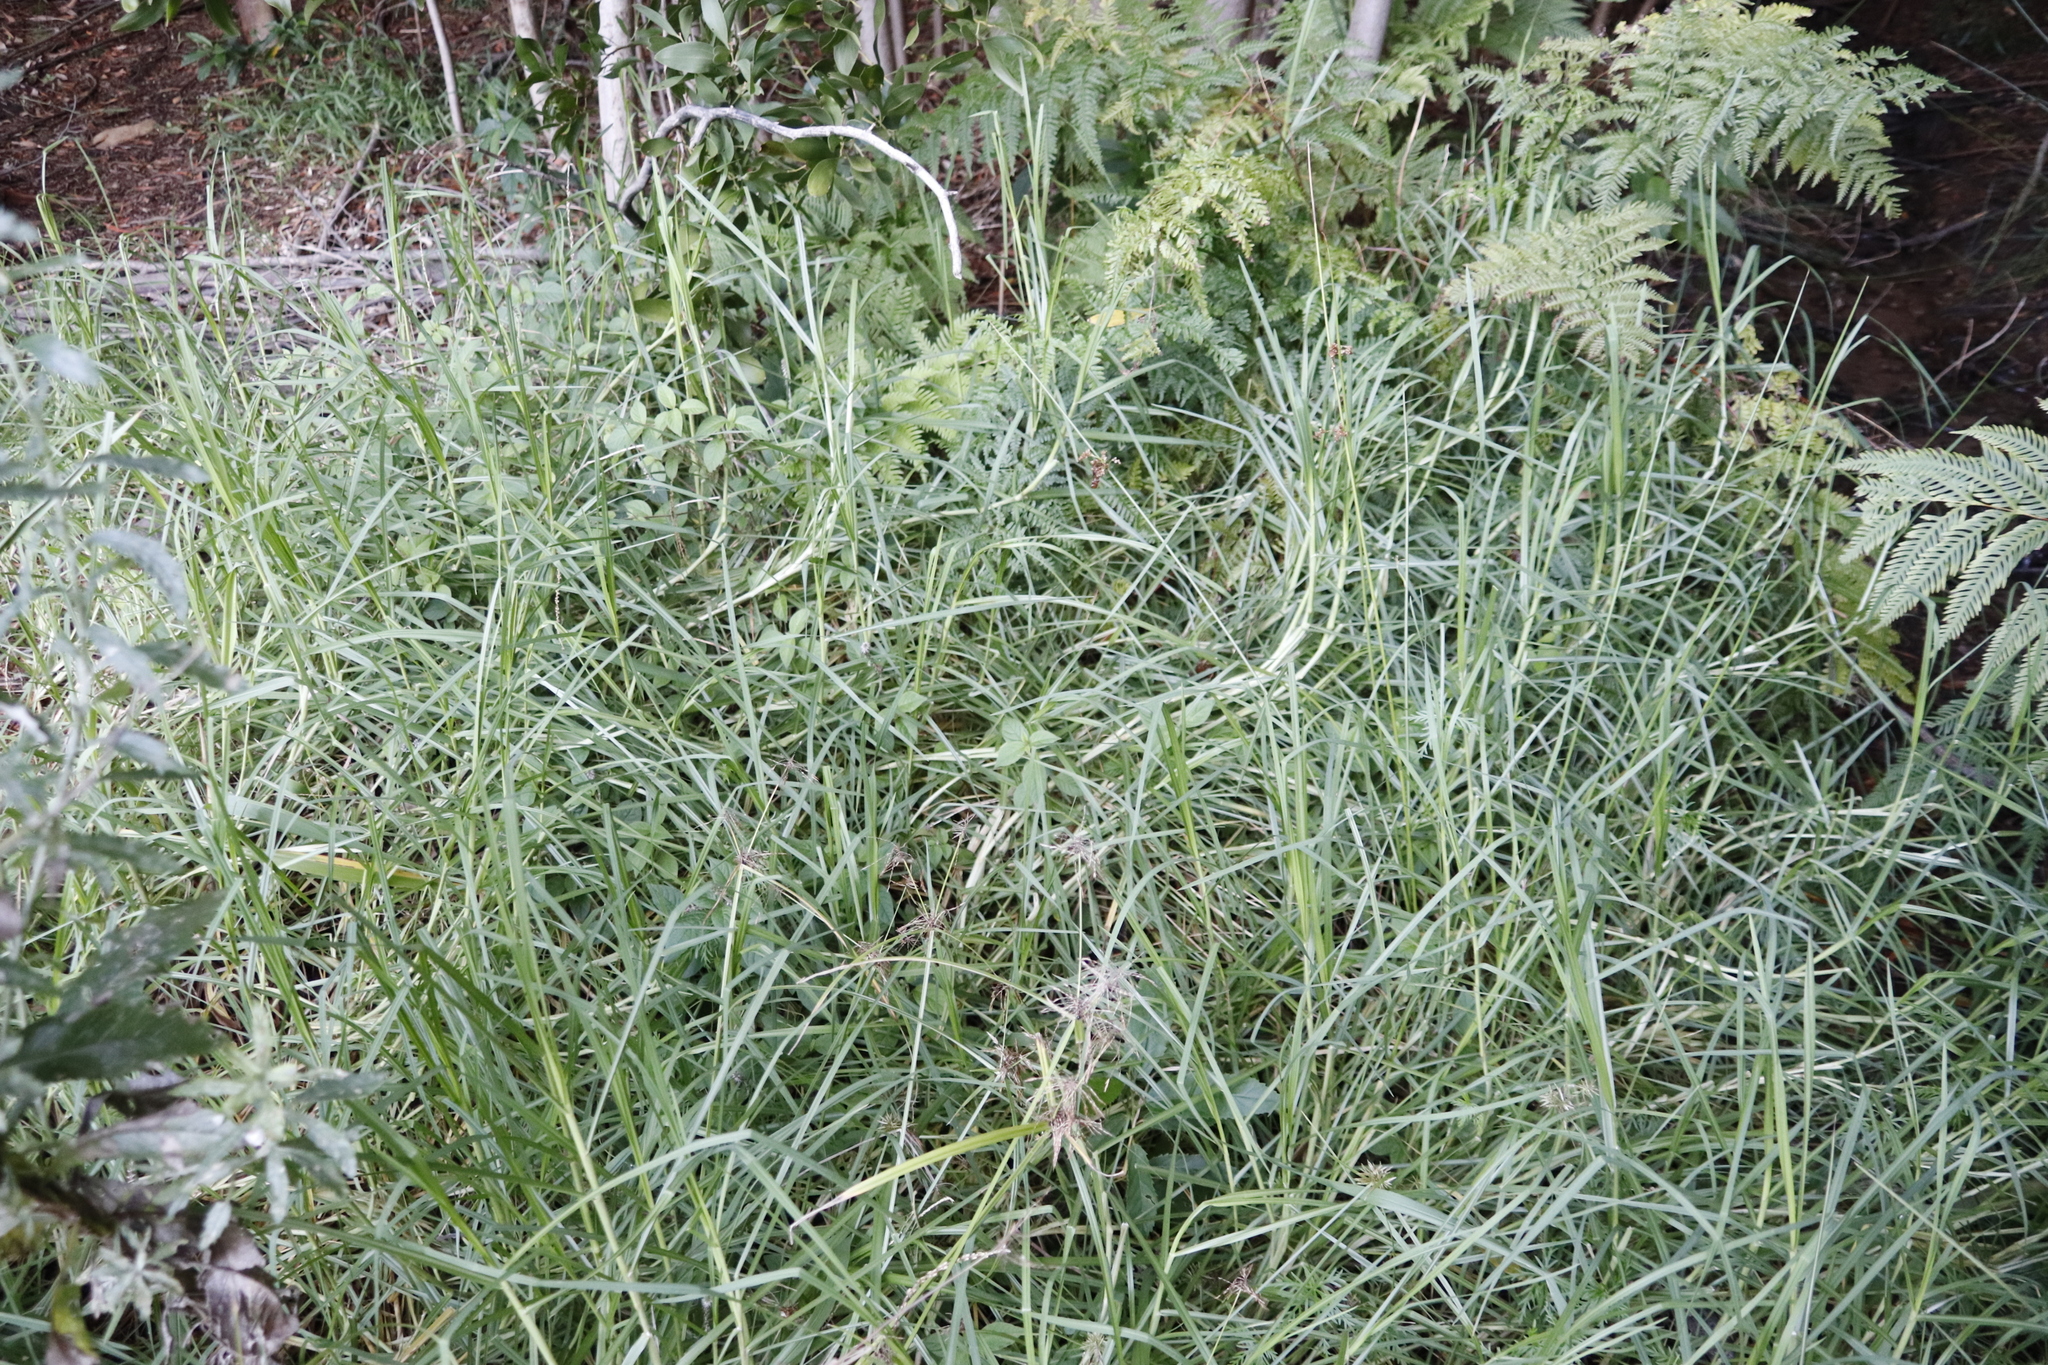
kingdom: Plantae
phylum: Tracheophyta
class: Liliopsida
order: Poales
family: Poaceae
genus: Cenchrus
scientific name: Cenchrus clandestinus
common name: Kikuyugrass
